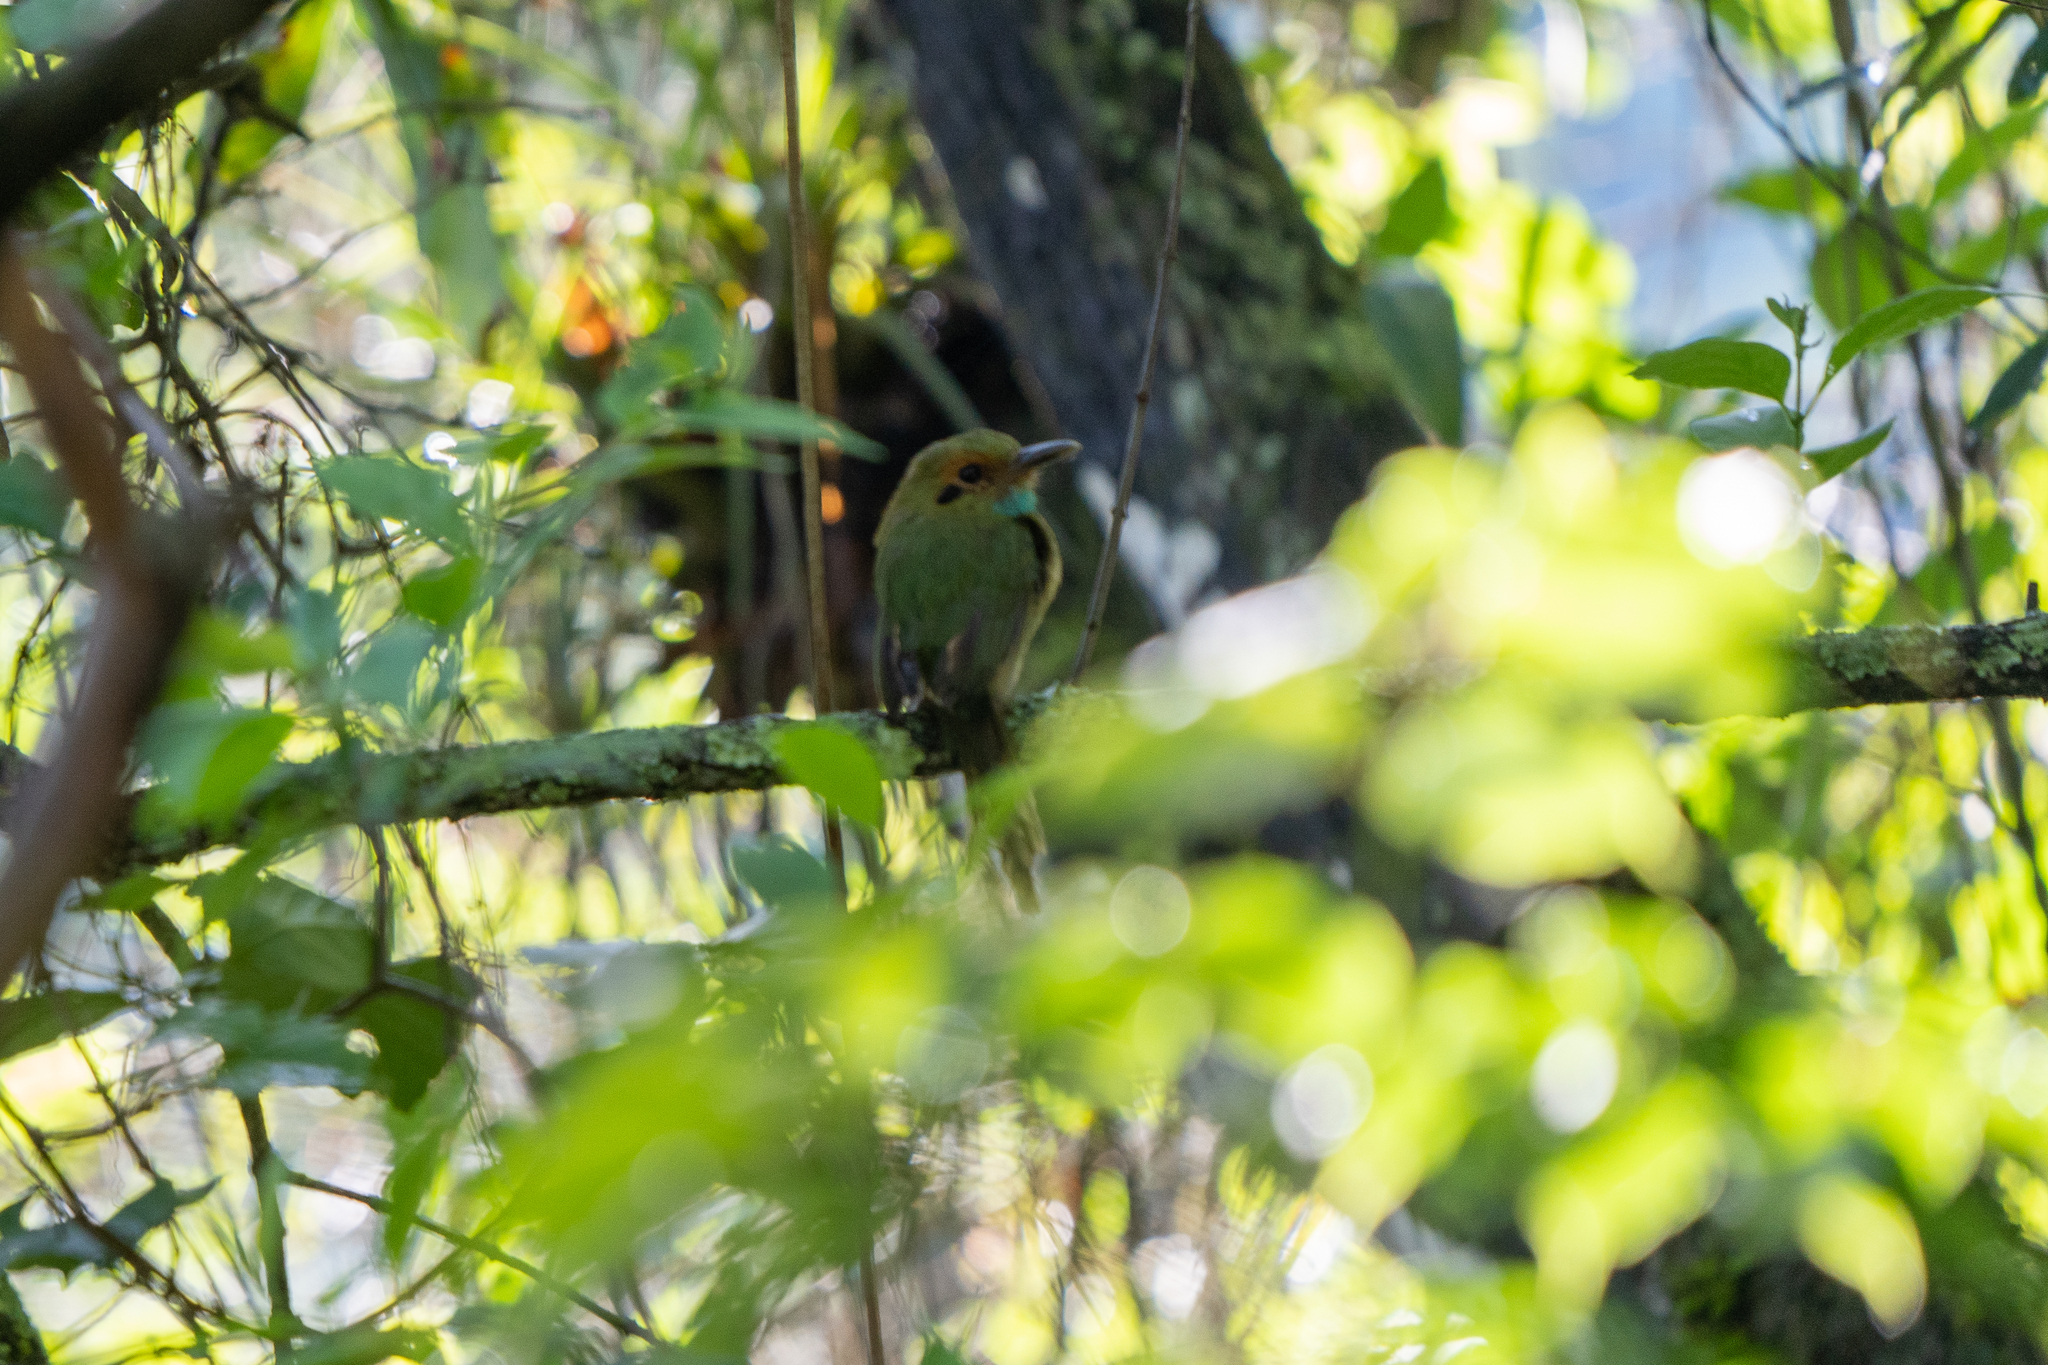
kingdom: Animalia
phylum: Chordata
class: Aves
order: Coraciiformes
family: Momotidae
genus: Aspatha
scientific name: Aspatha gularis
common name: Blue-throated motmot
